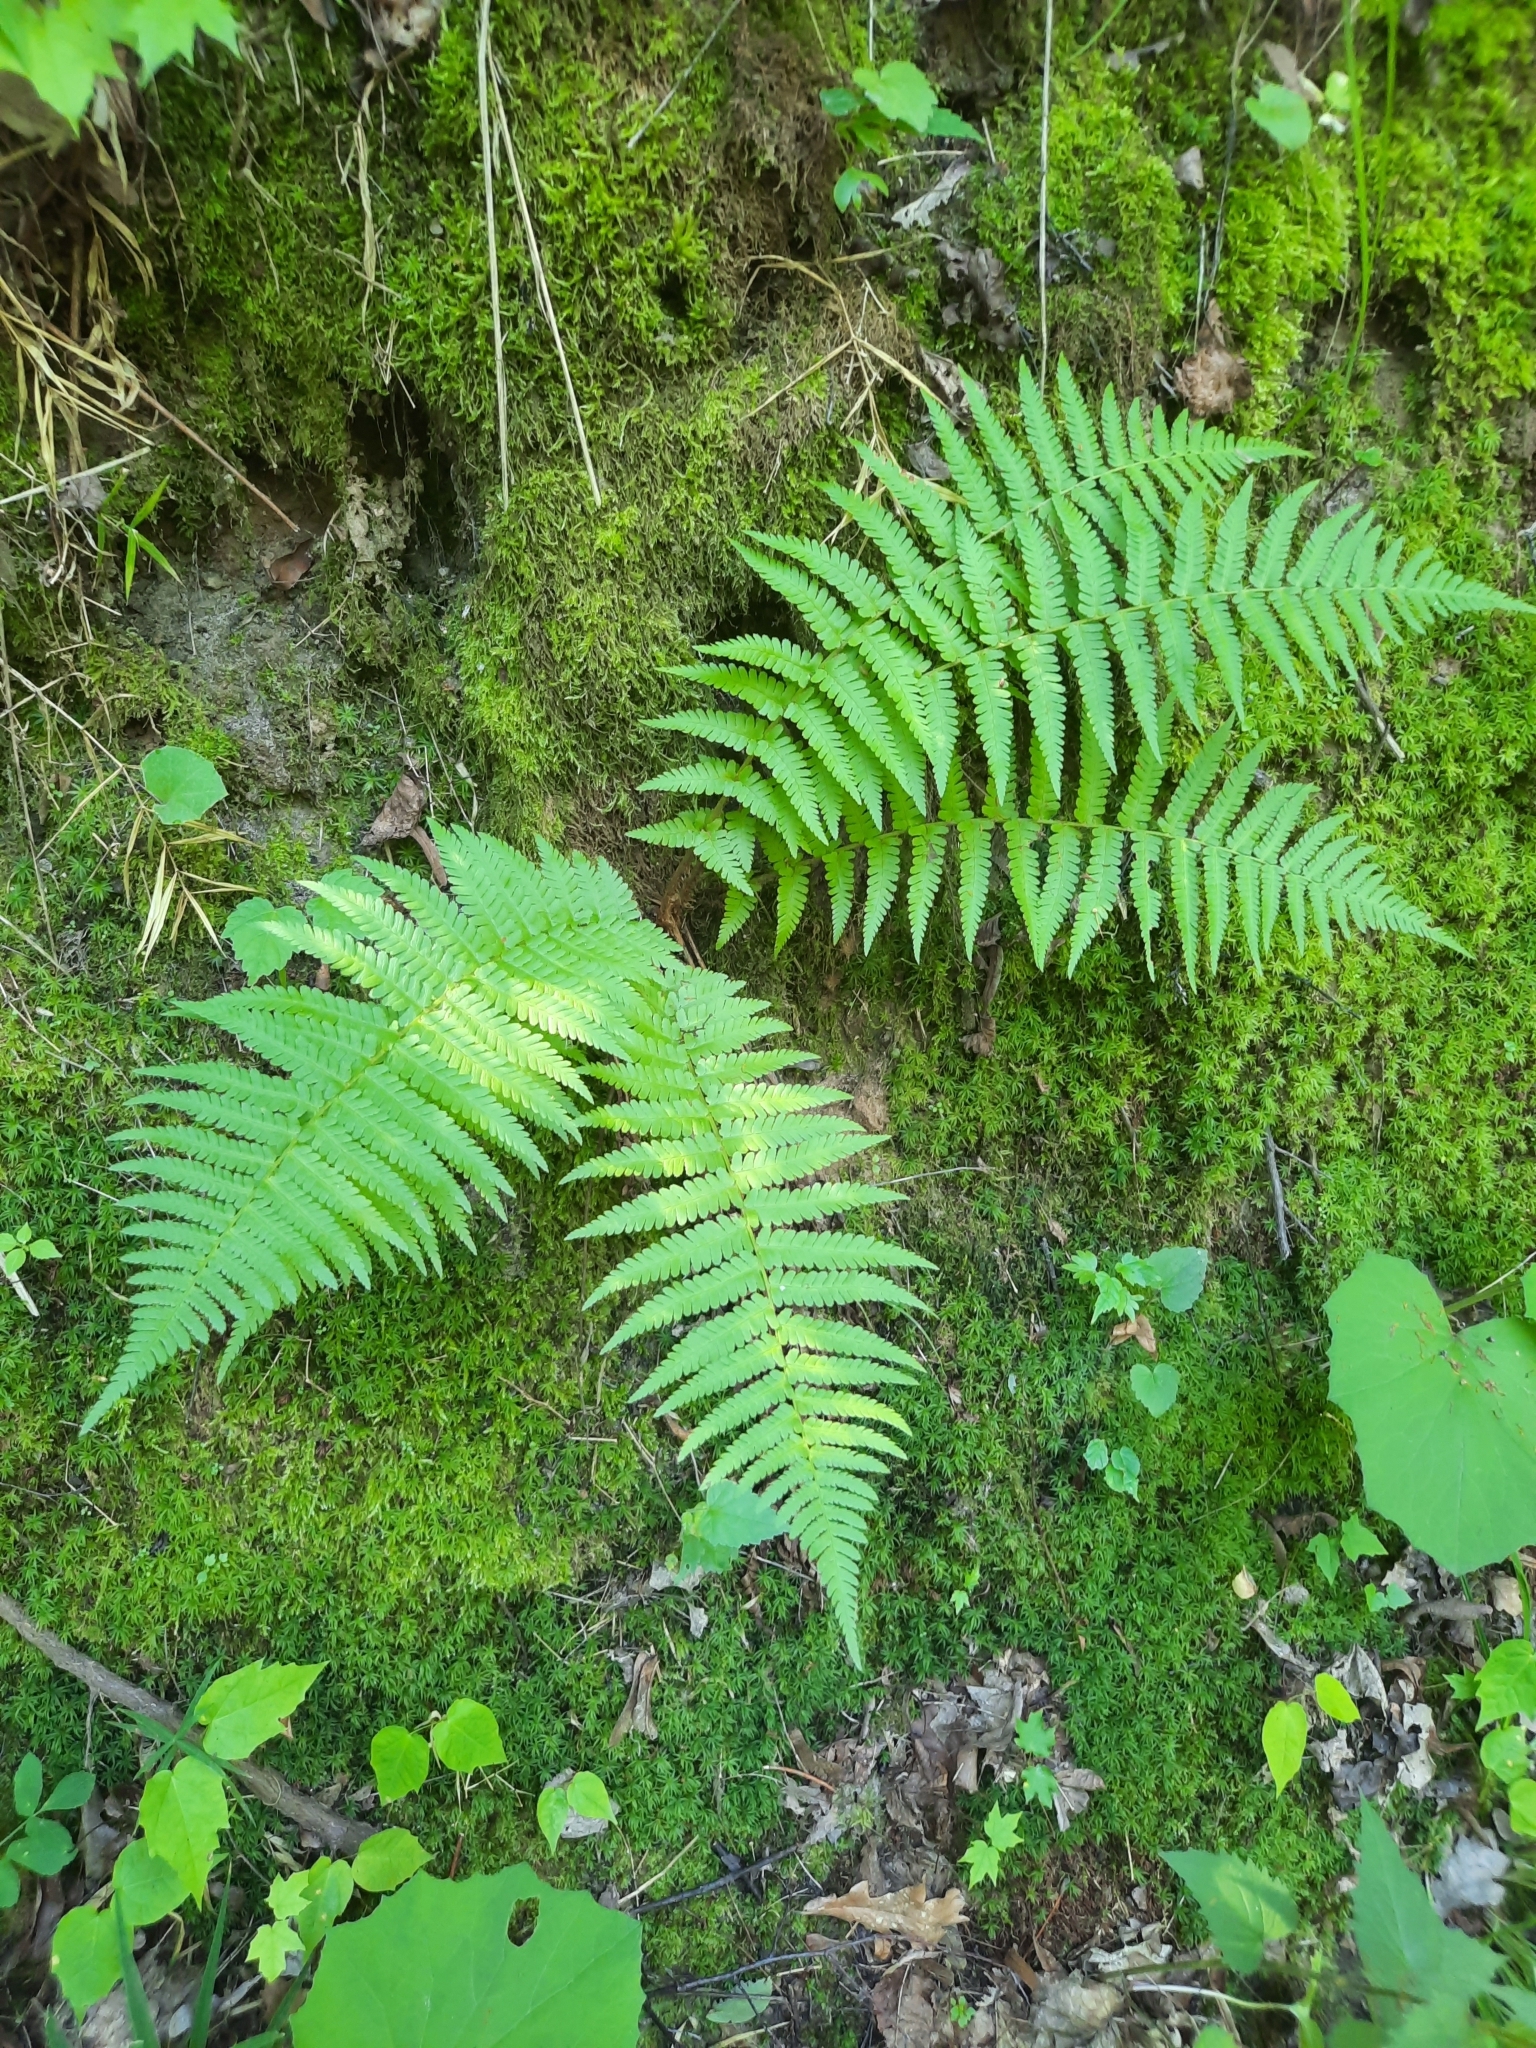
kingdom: Plantae
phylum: Tracheophyta
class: Polypodiopsida
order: Polypodiales
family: Dryopteridaceae
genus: Dryopteris
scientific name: Dryopteris filix-mas
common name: Male fern
